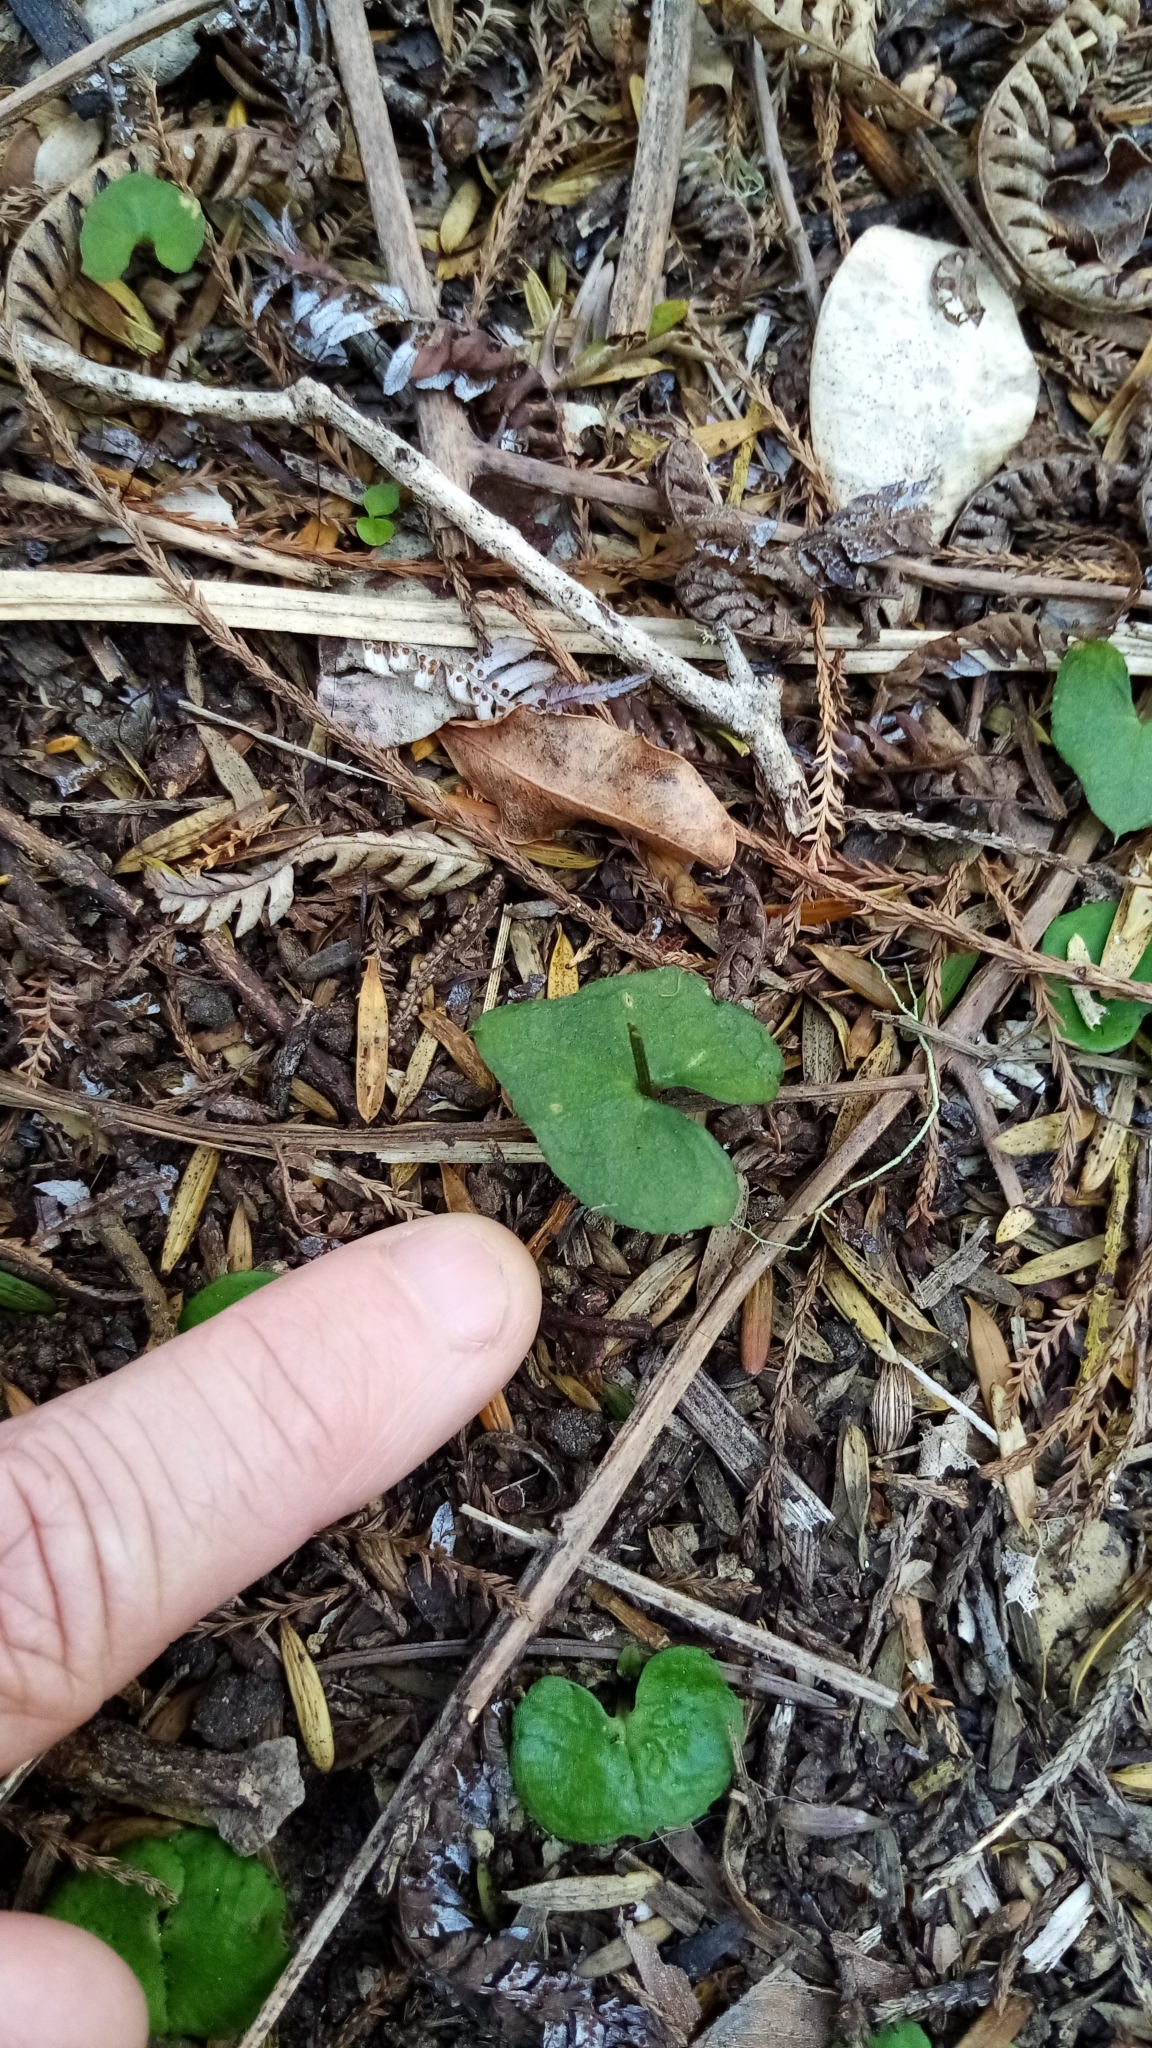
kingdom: Plantae
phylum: Tracheophyta
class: Liliopsida
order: Asparagales
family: Orchidaceae
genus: Acianthus
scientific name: Acianthus sinclairii
